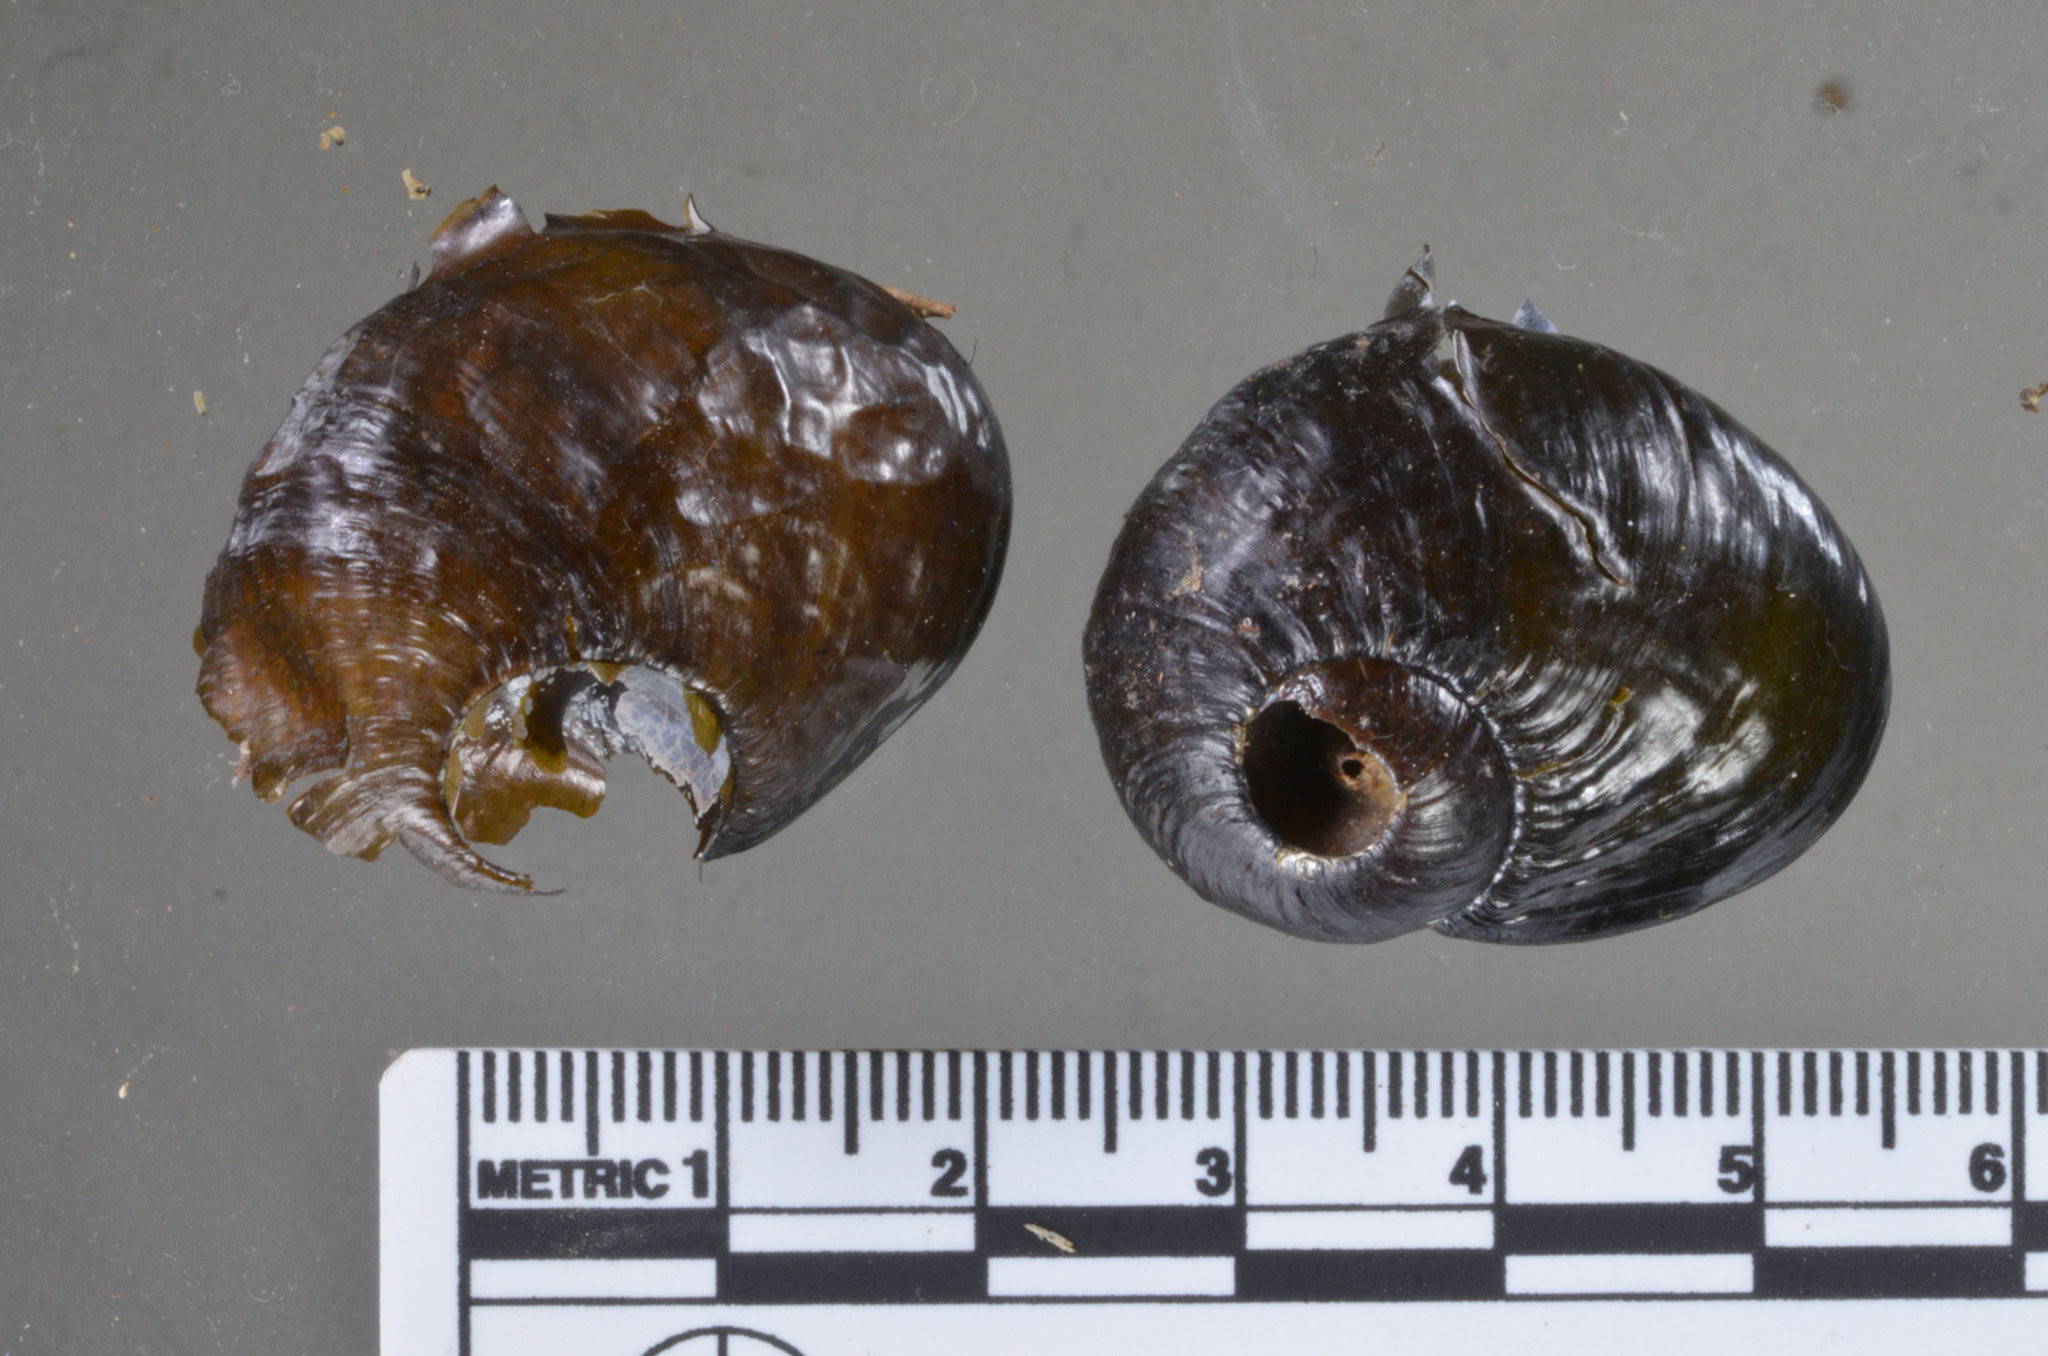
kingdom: Animalia
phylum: Mollusca
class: Gastropoda
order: Stylommatophora
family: Rhytididae
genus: Wainuia
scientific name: Wainuia edwardi
